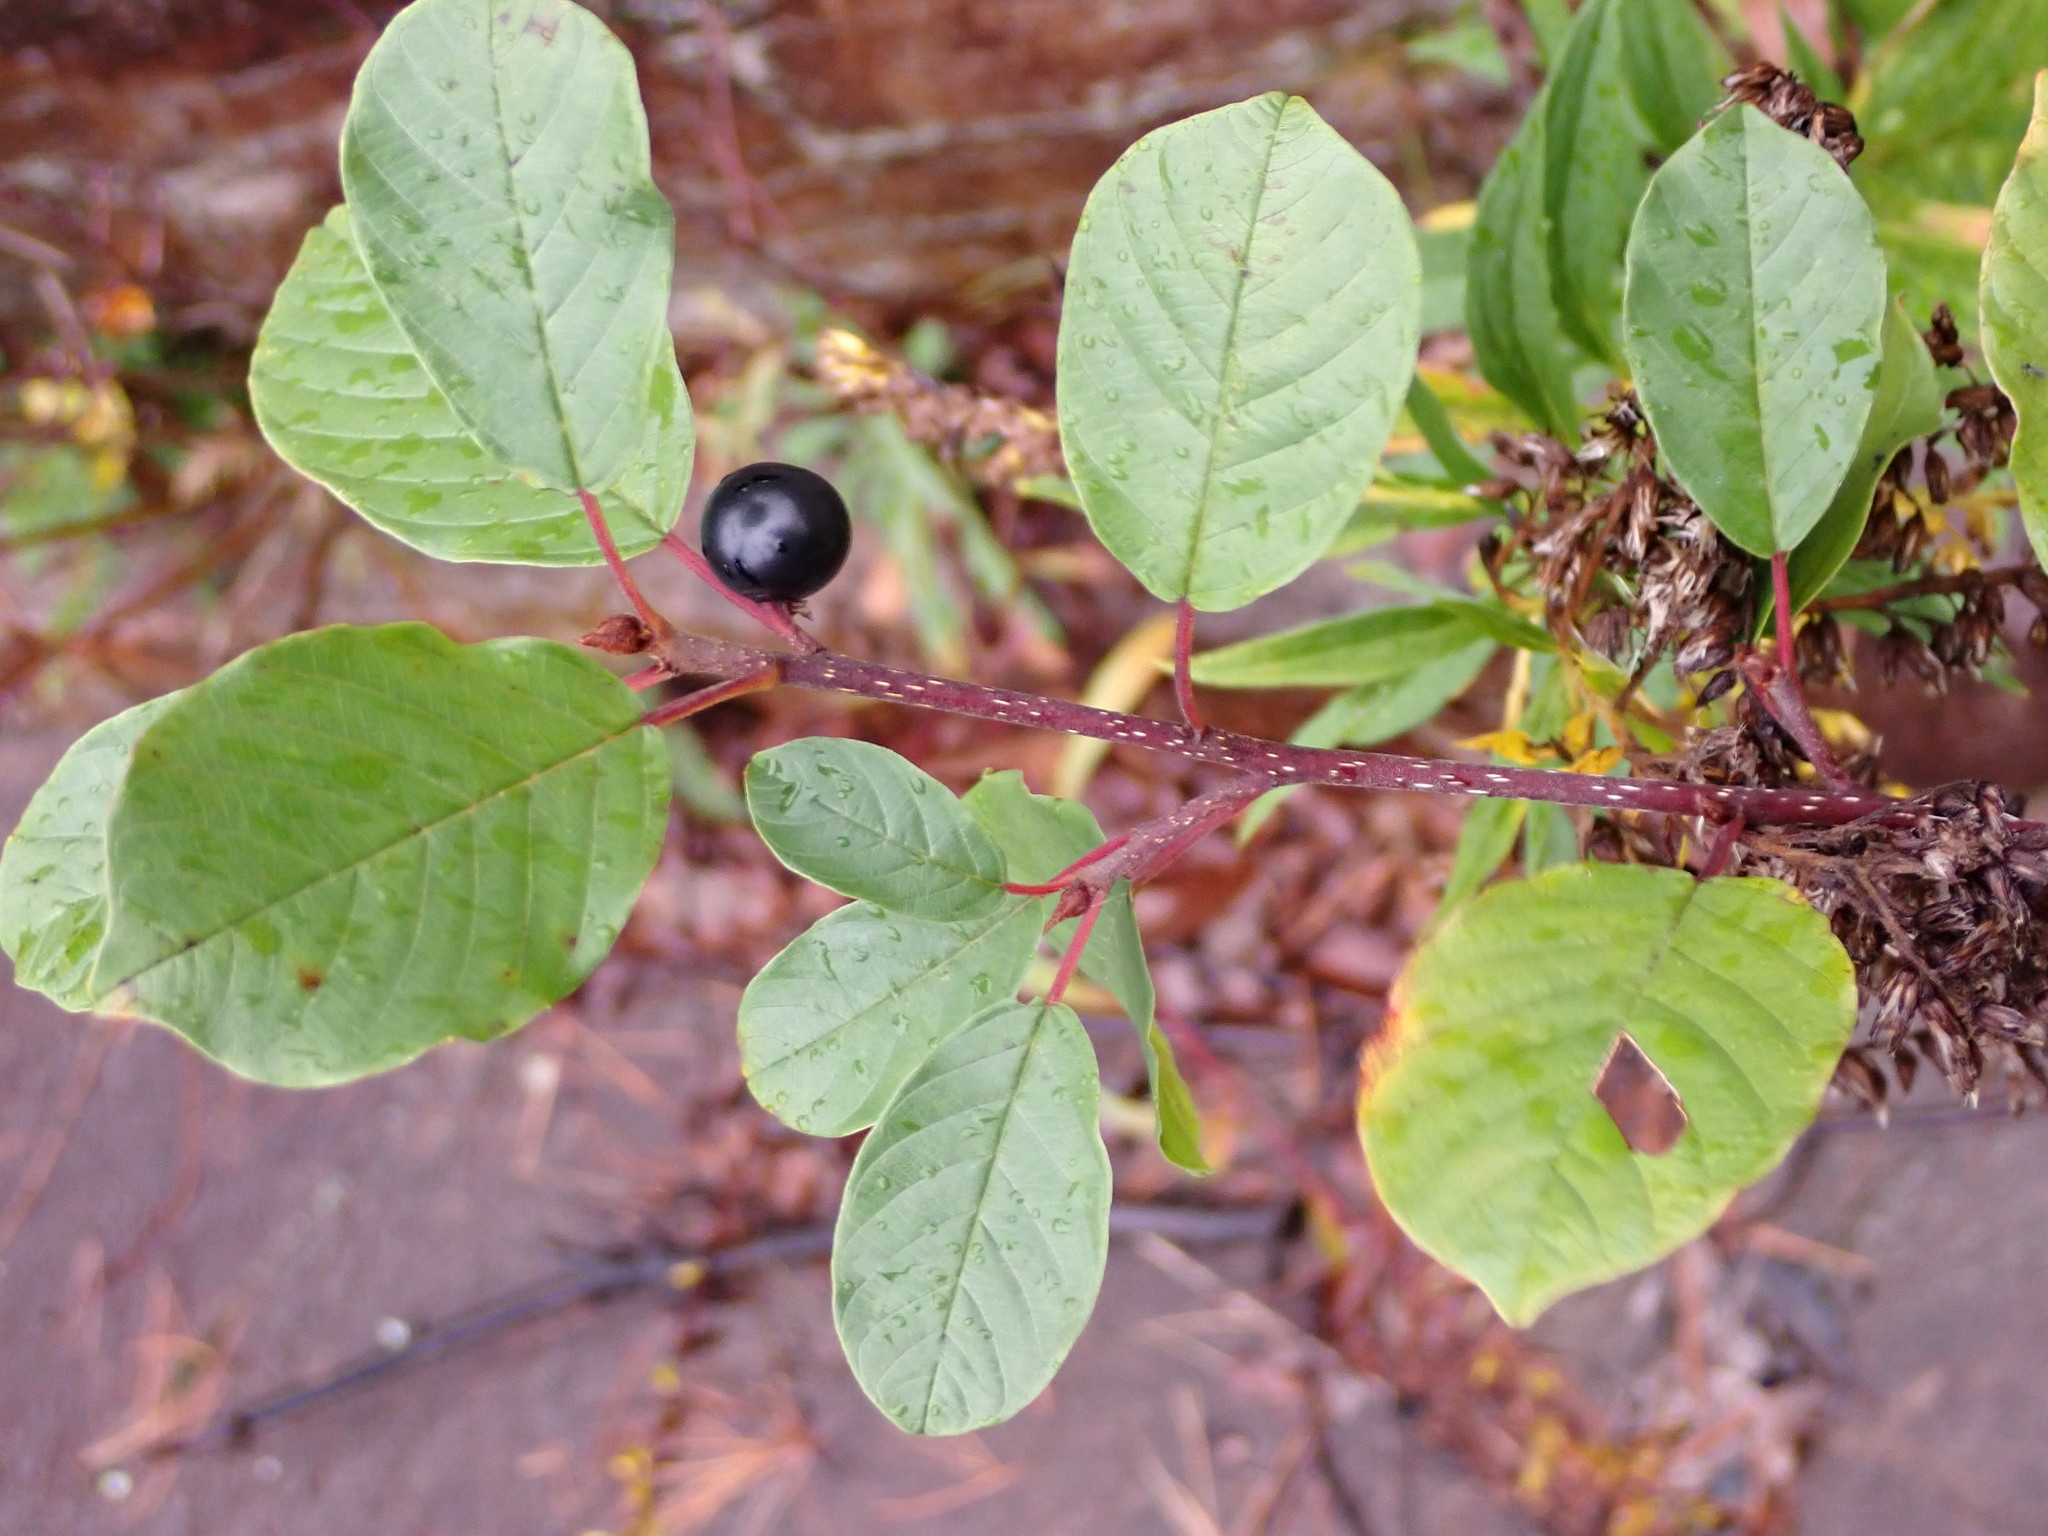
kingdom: Plantae
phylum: Tracheophyta
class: Magnoliopsida
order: Rosales
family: Rhamnaceae
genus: Frangula
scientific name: Frangula alnus
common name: Alder buckthorn
